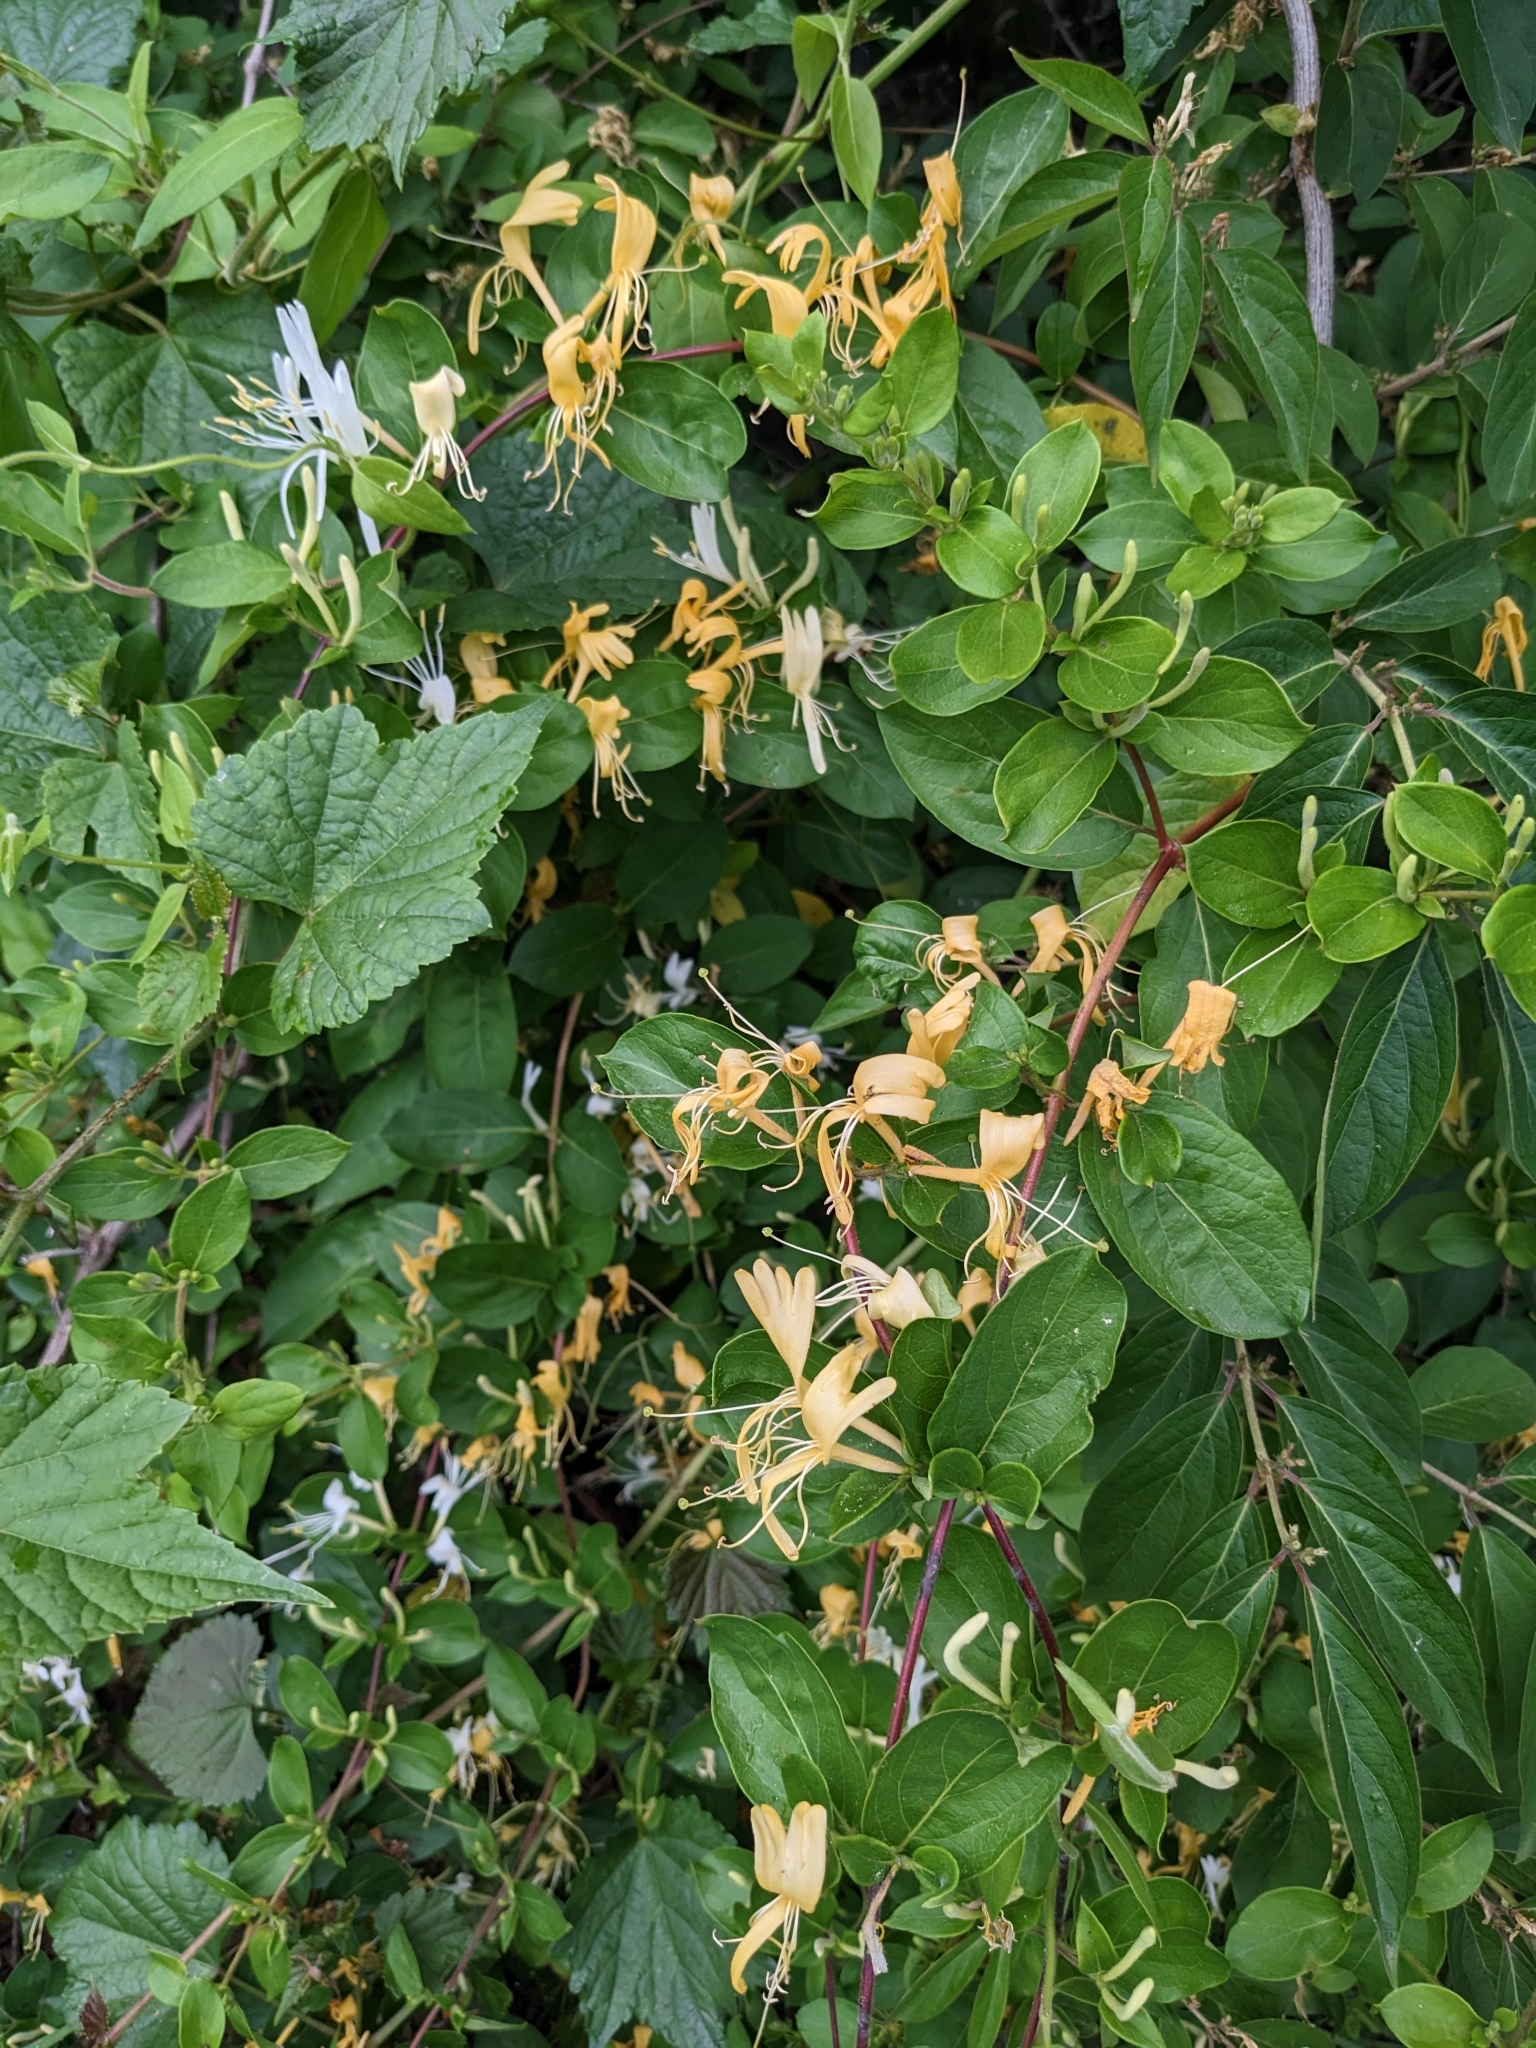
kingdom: Plantae
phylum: Tracheophyta
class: Magnoliopsida
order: Dipsacales
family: Caprifoliaceae
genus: Lonicera
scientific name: Lonicera japonica
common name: Japanese honeysuckle
